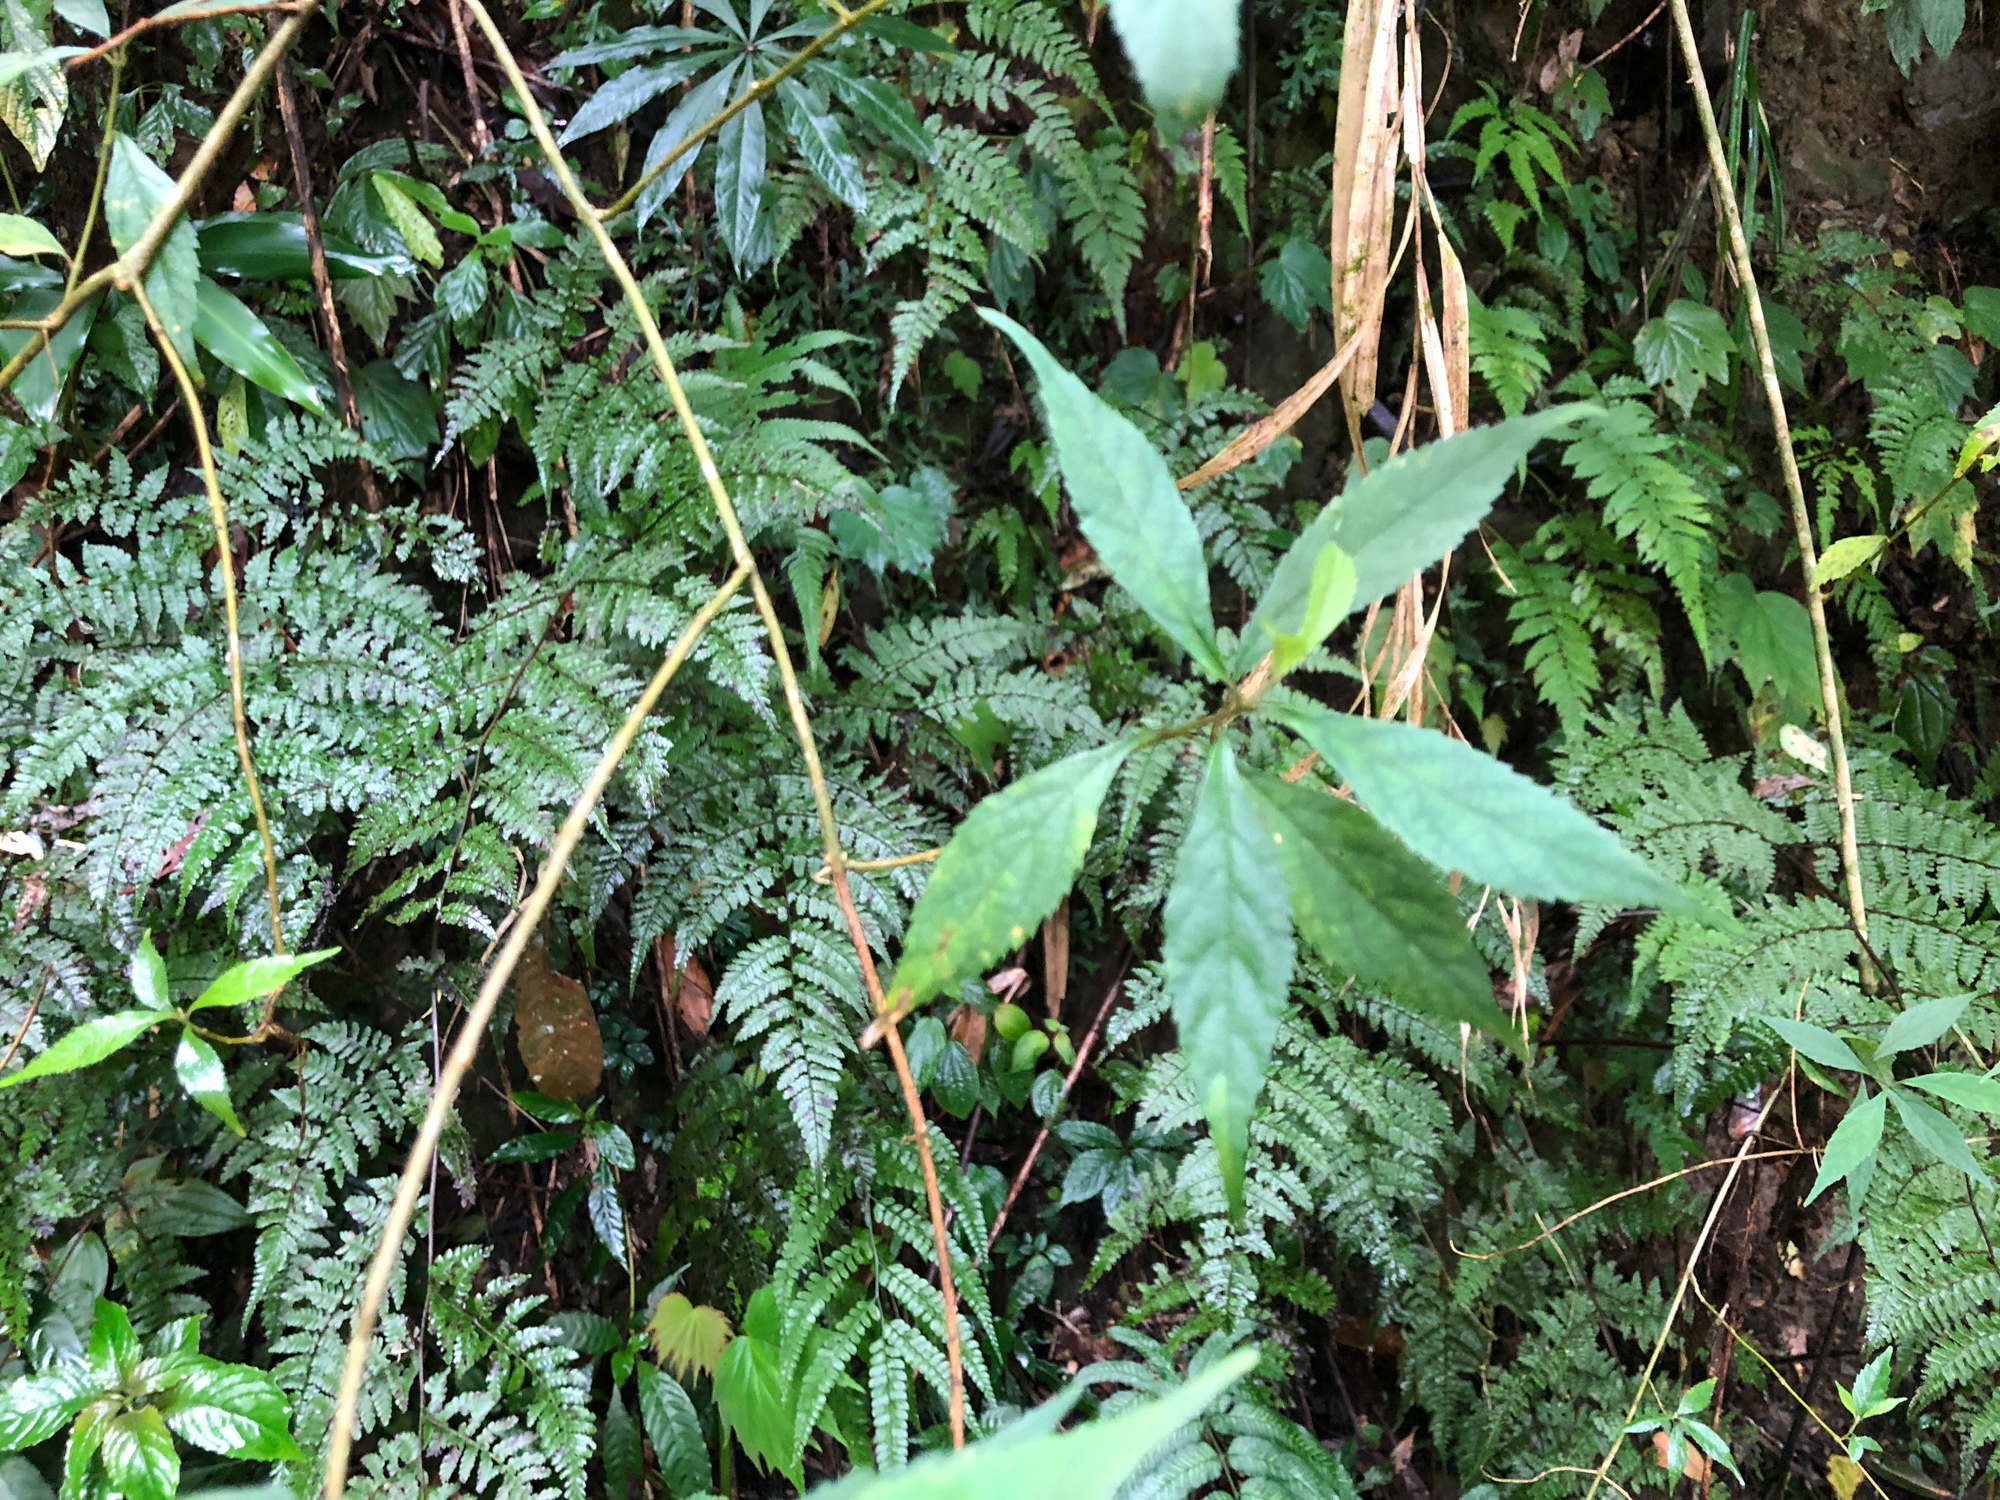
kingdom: Plantae
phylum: Tracheophyta
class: Magnoliopsida
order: Lamiales
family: Lamiaceae
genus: Callicarpa
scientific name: Callicarpa randaiensis
